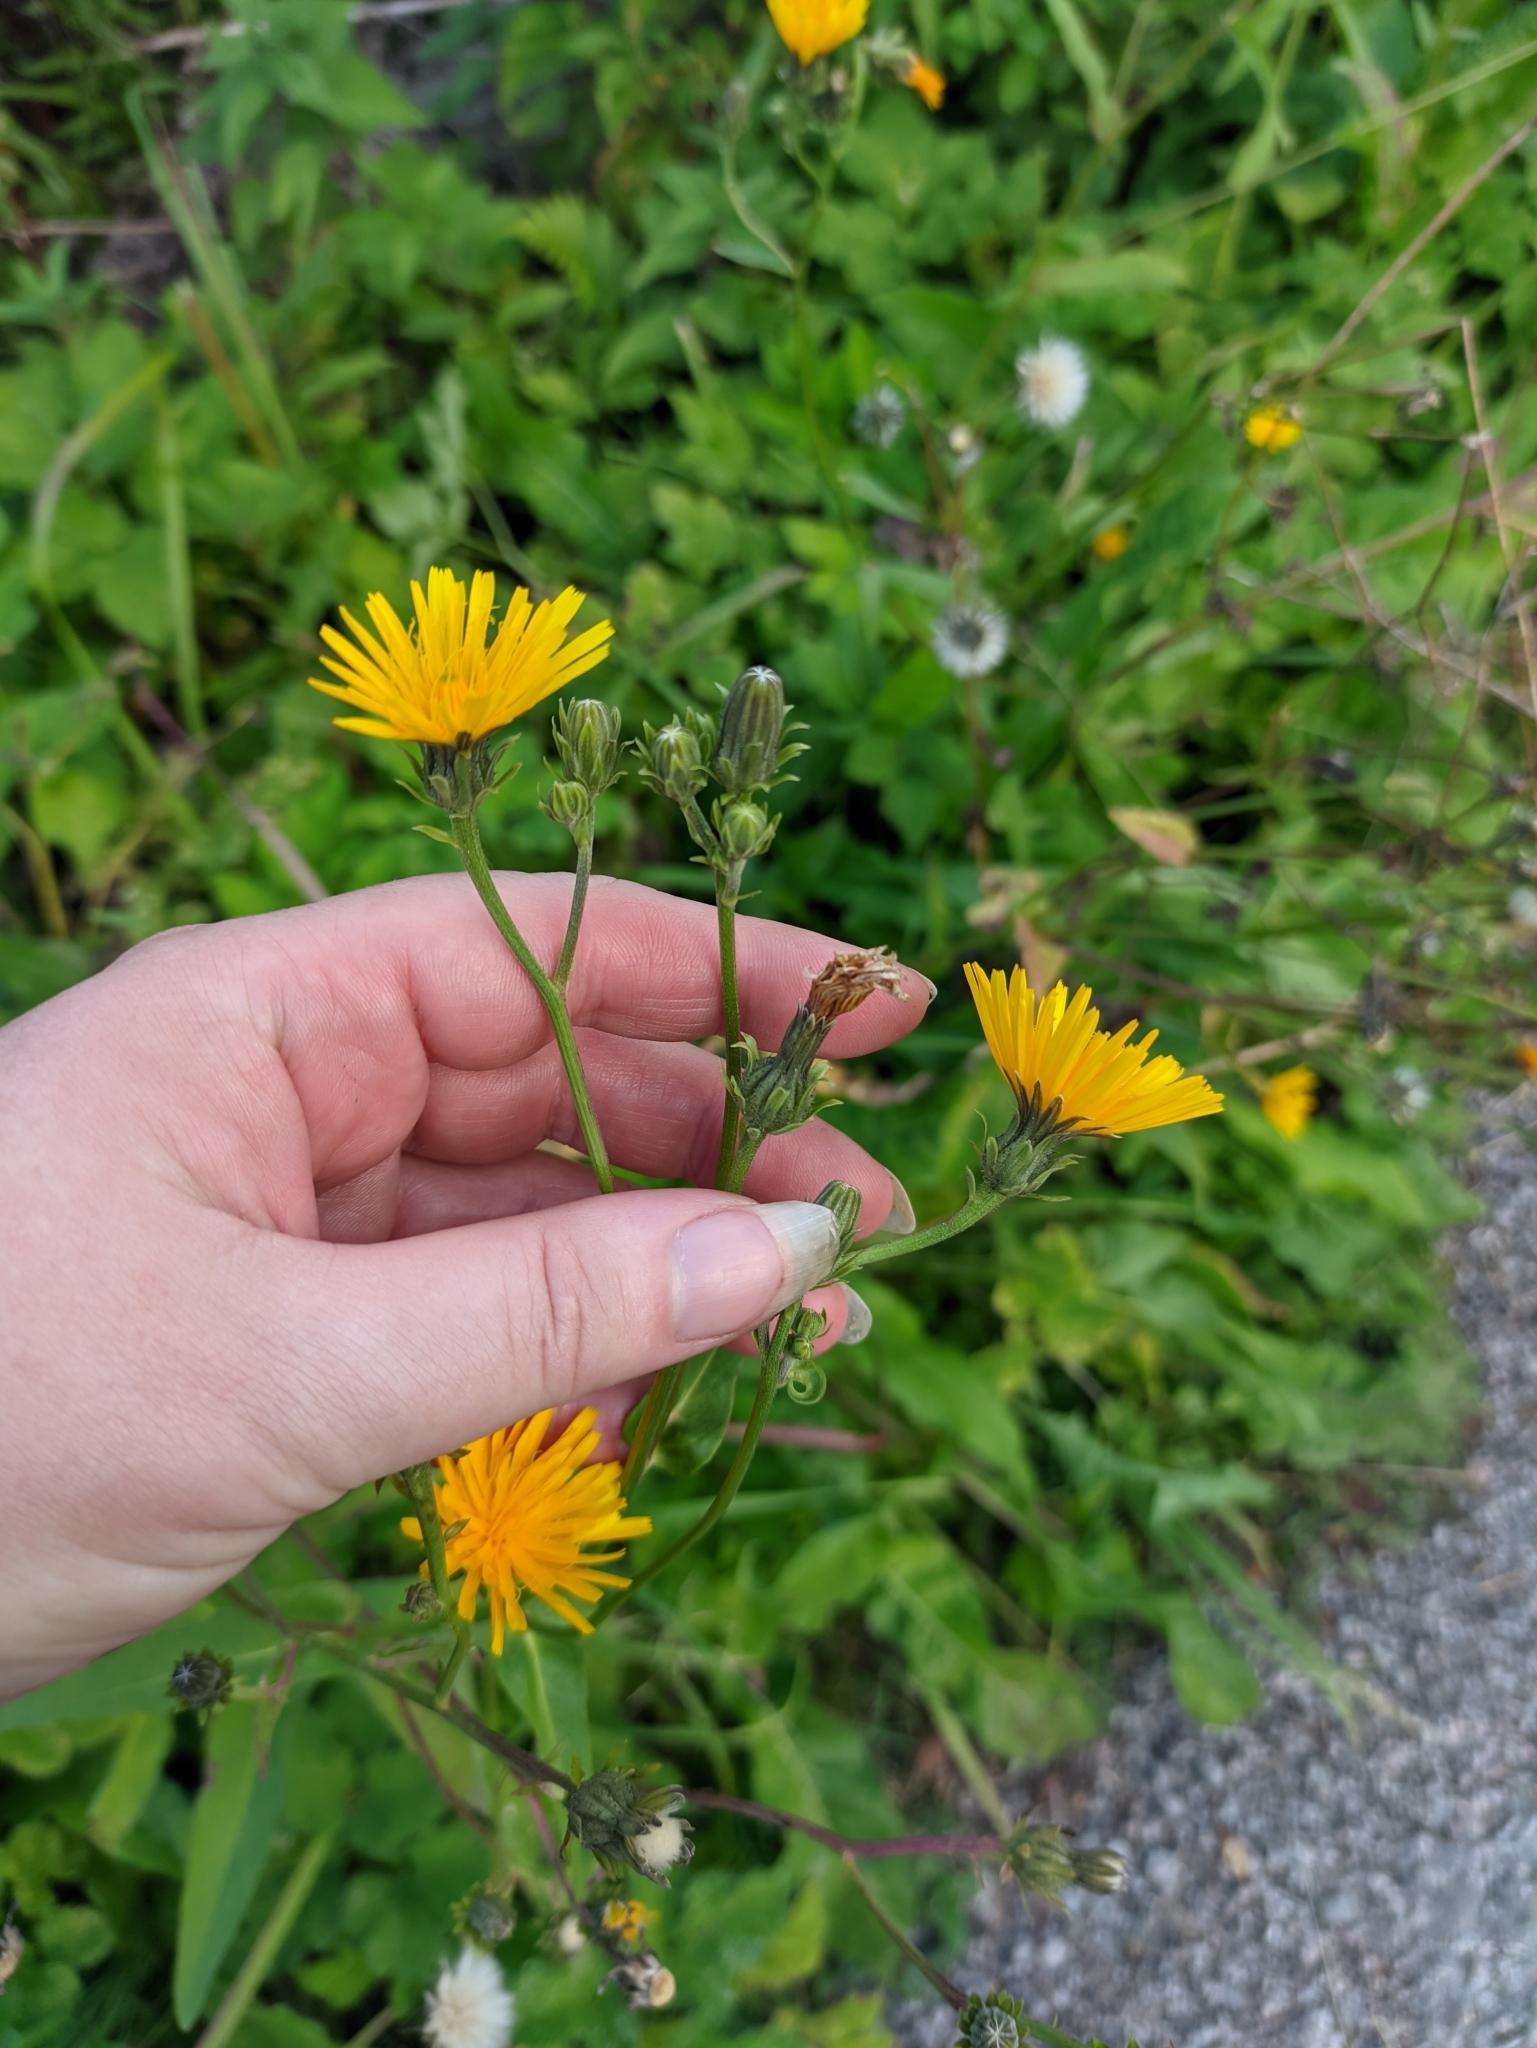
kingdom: Plantae
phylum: Tracheophyta
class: Magnoliopsida
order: Asterales
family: Asteraceae
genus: Picris
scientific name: Picris hieracioides
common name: Hawkweed oxtongue
